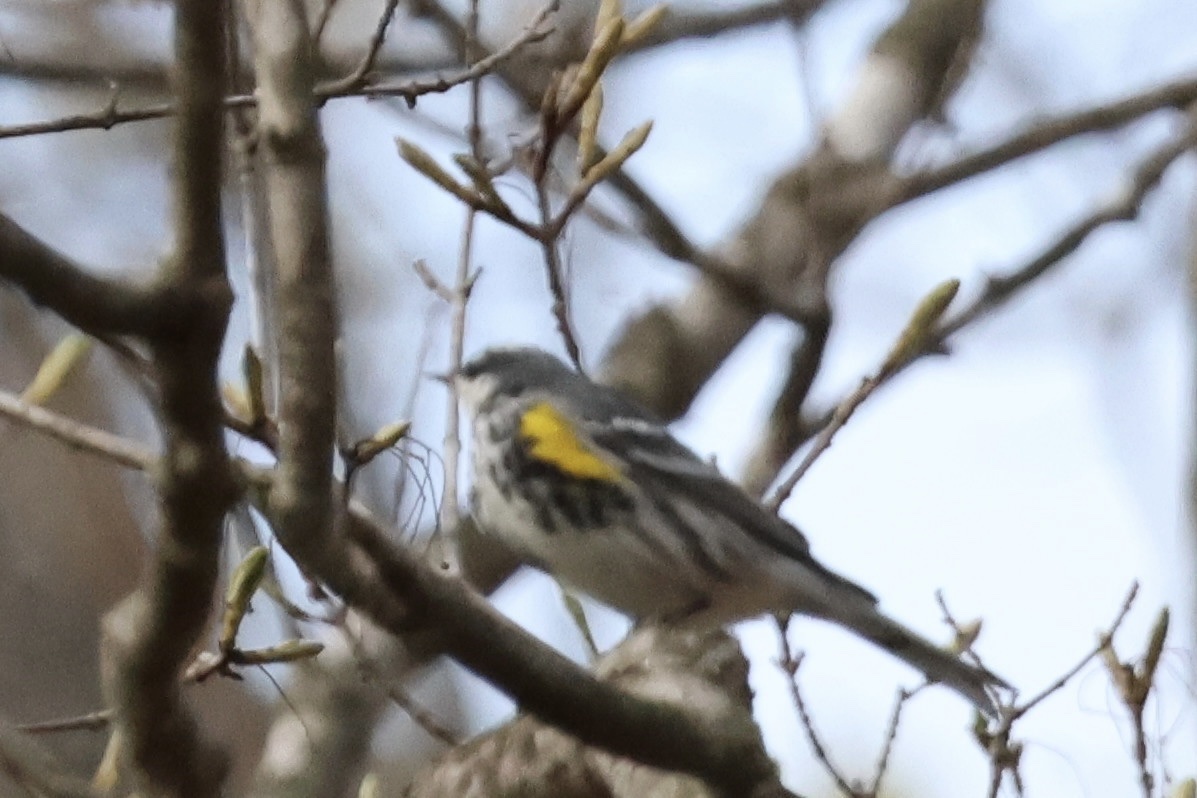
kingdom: Animalia
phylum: Chordata
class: Aves
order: Passeriformes
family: Parulidae
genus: Setophaga
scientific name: Setophaga coronata
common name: Myrtle warbler
